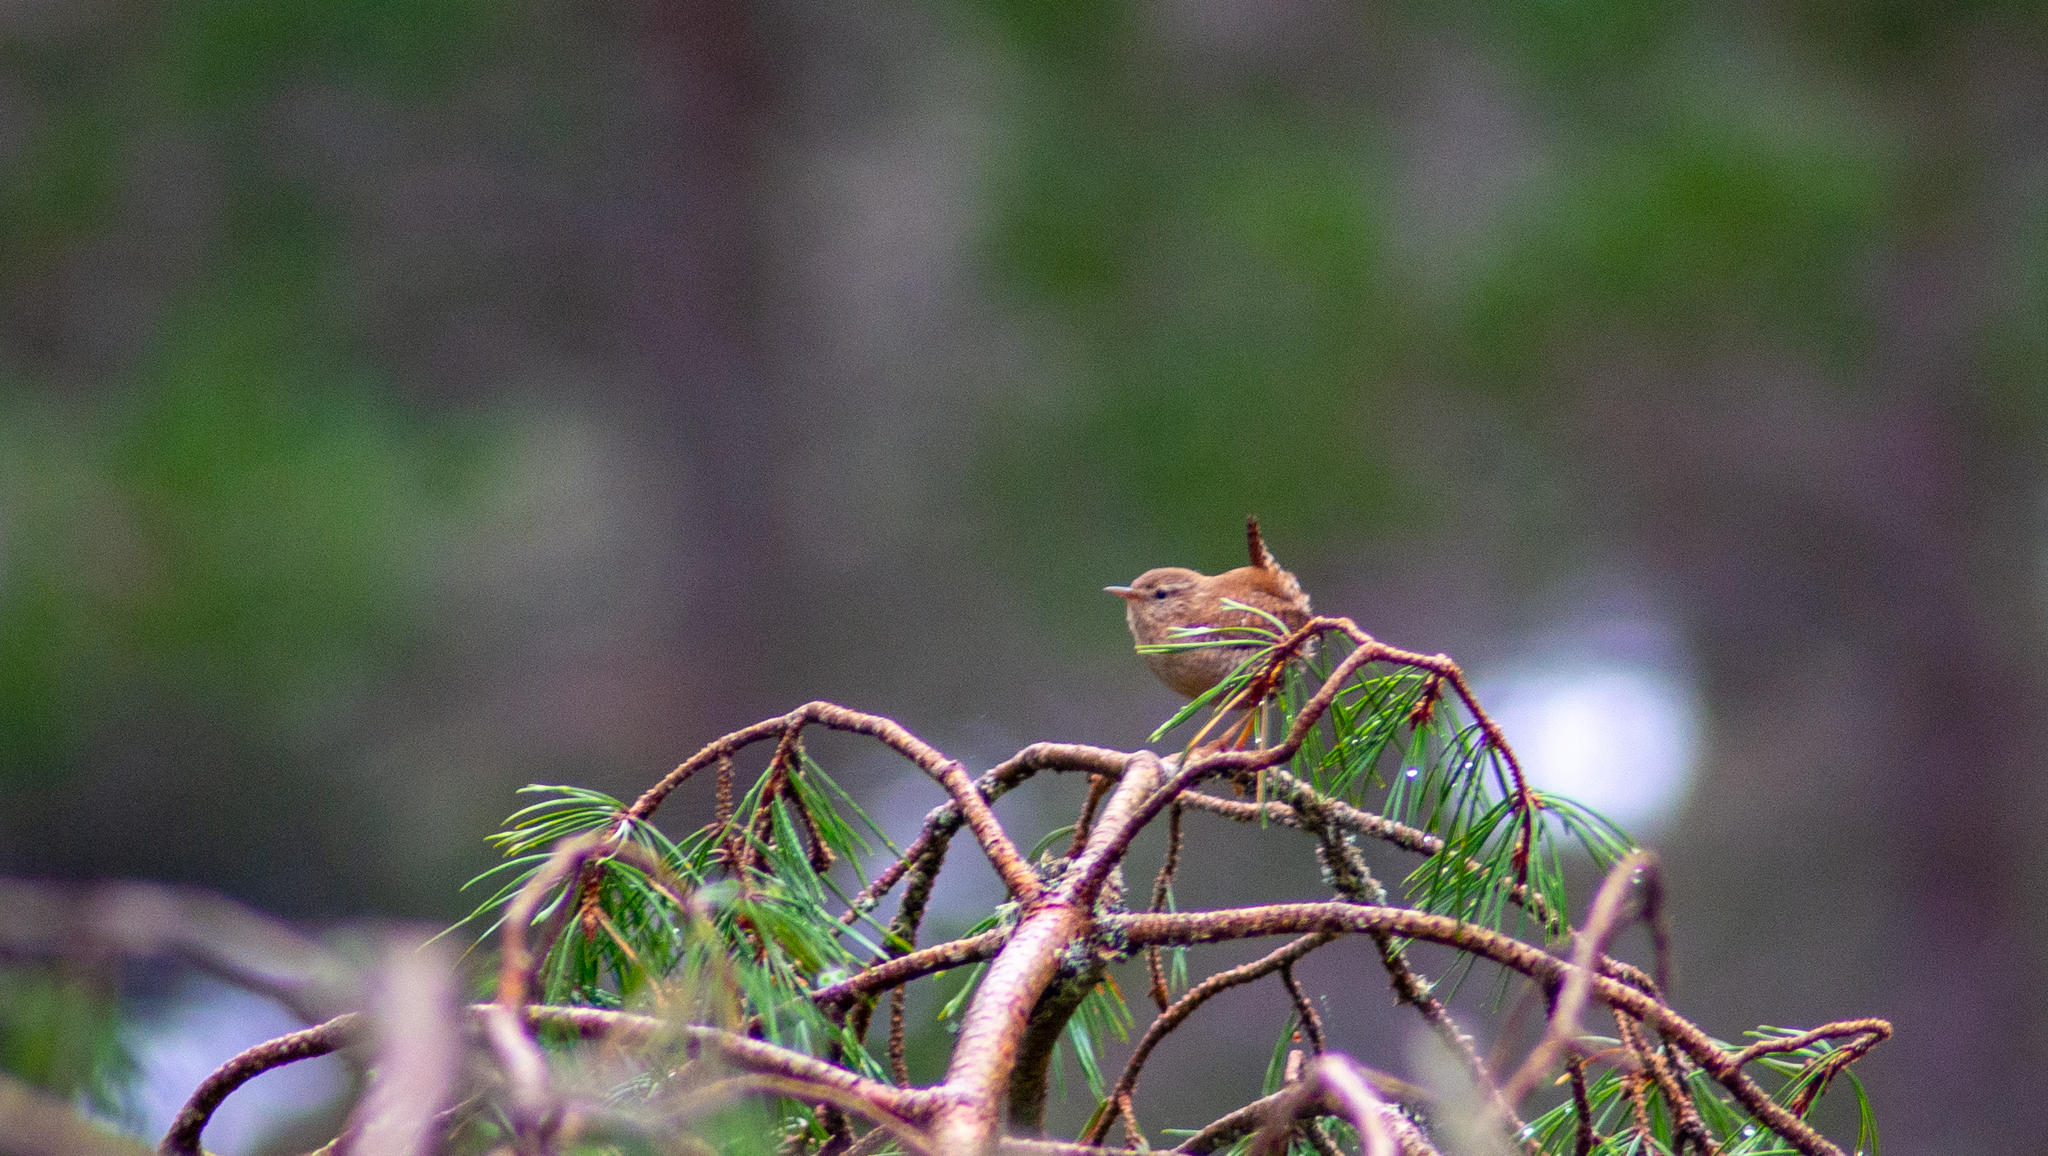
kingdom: Animalia
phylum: Chordata
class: Aves
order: Passeriformes
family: Troglodytidae
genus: Troglodytes
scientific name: Troglodytes troglodytes
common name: Eurasian wren
